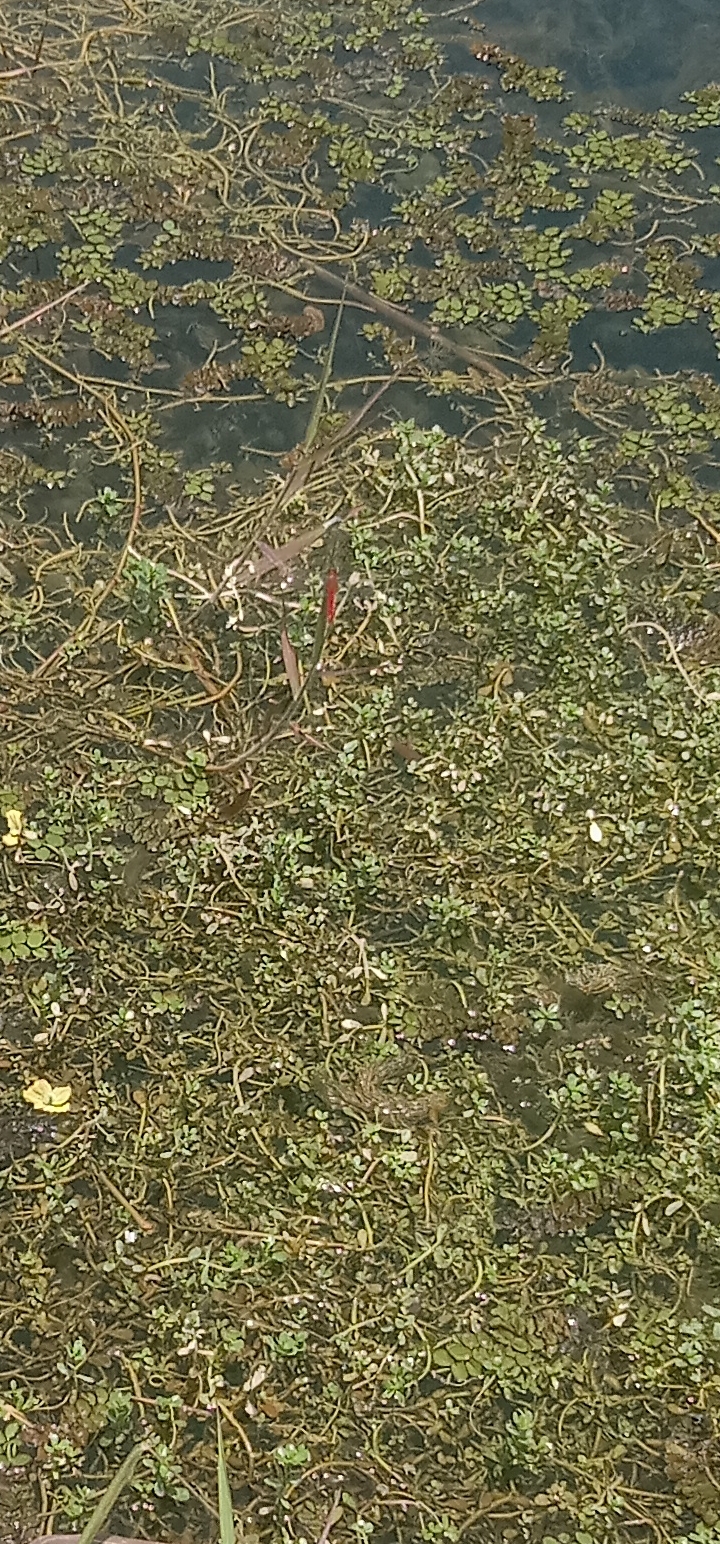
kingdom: Animalia
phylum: Arthropoda
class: Insecta
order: Odonata
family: Libellulidae
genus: Crocothemis
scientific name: Crocothemis servilia
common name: Scarlet skimmer
